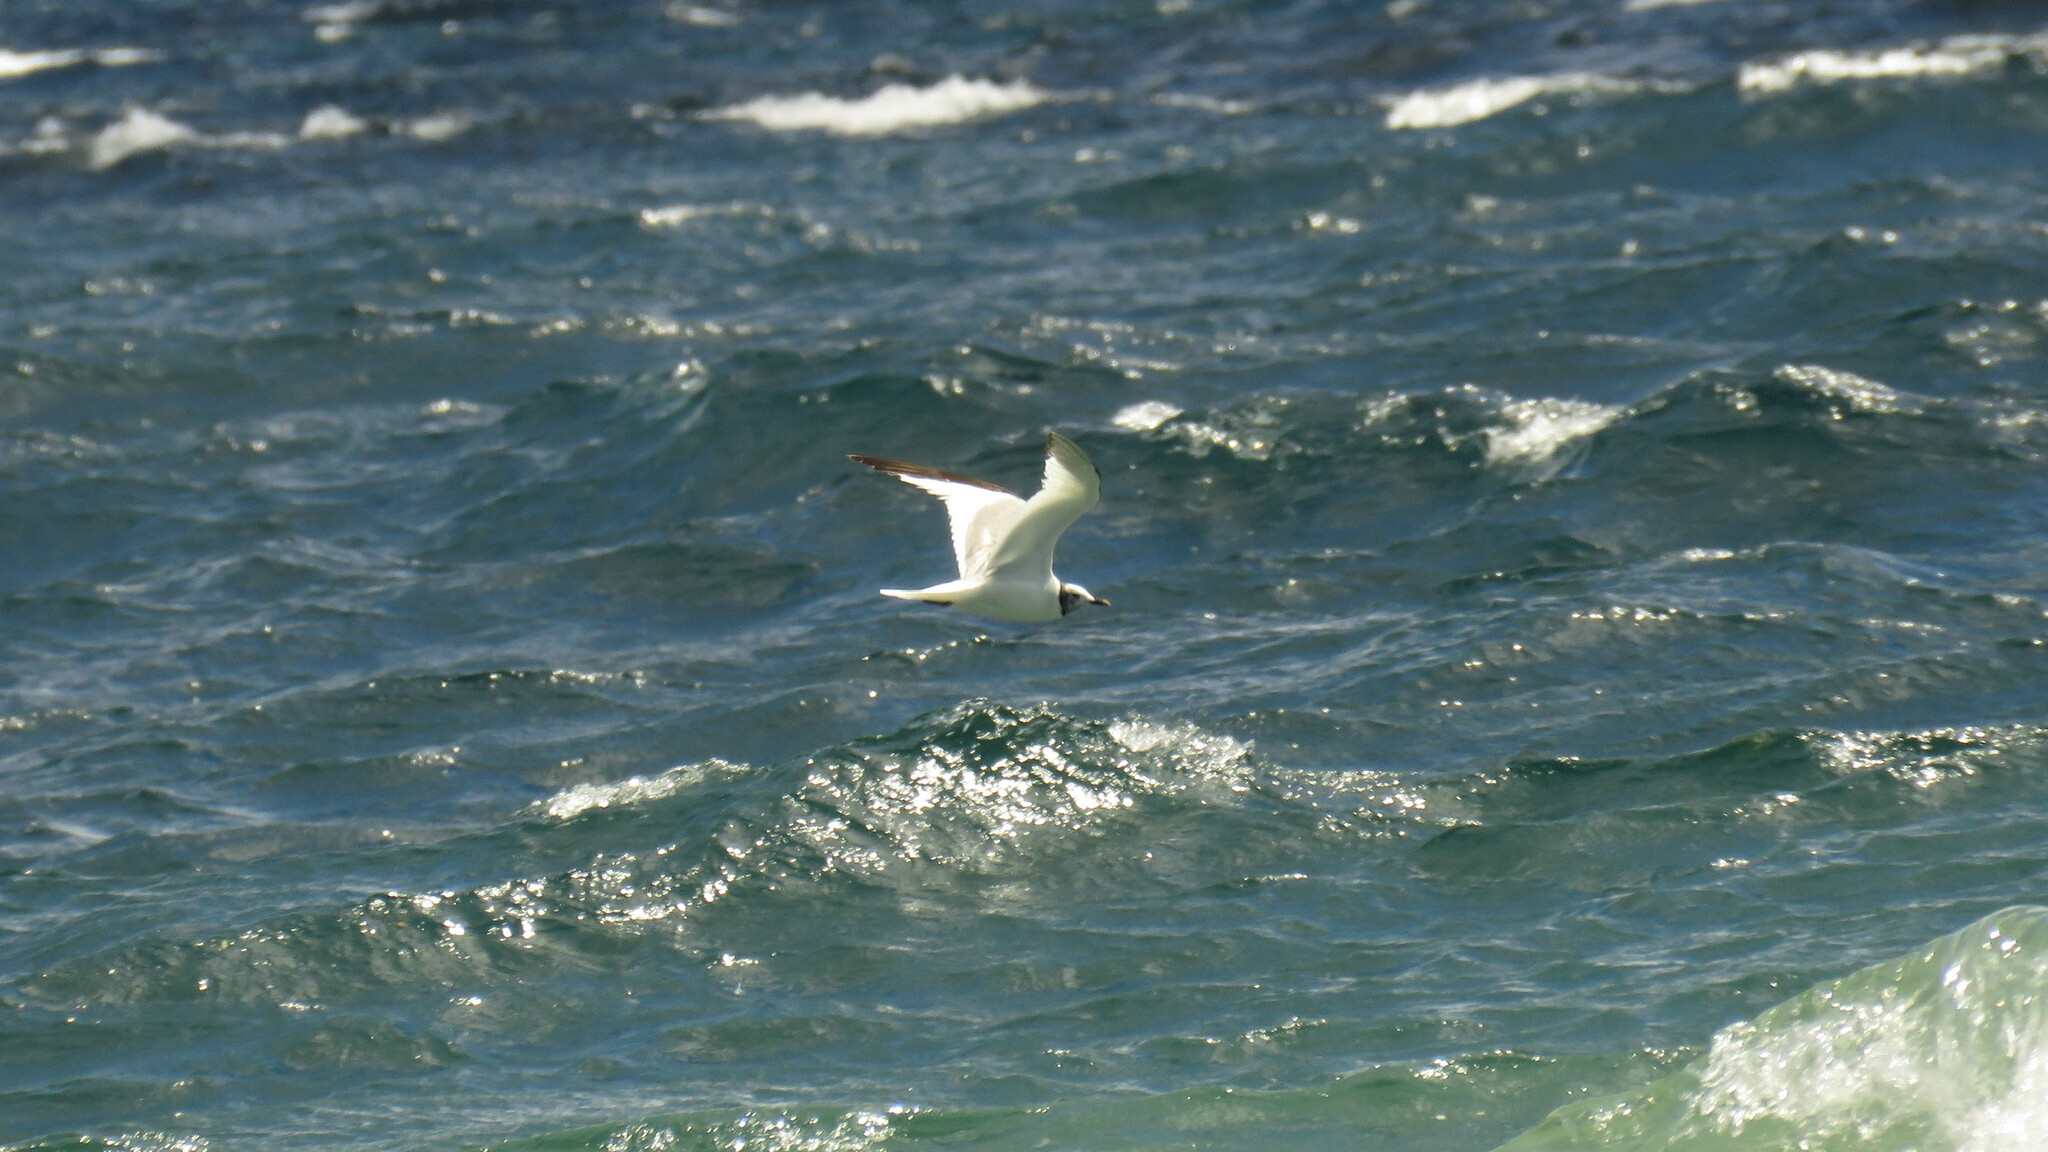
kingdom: Animalia
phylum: Chordata
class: Aves
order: Charadriiformes
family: Laridae
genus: Xema
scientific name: Xema sabini
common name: Sabine's gull
